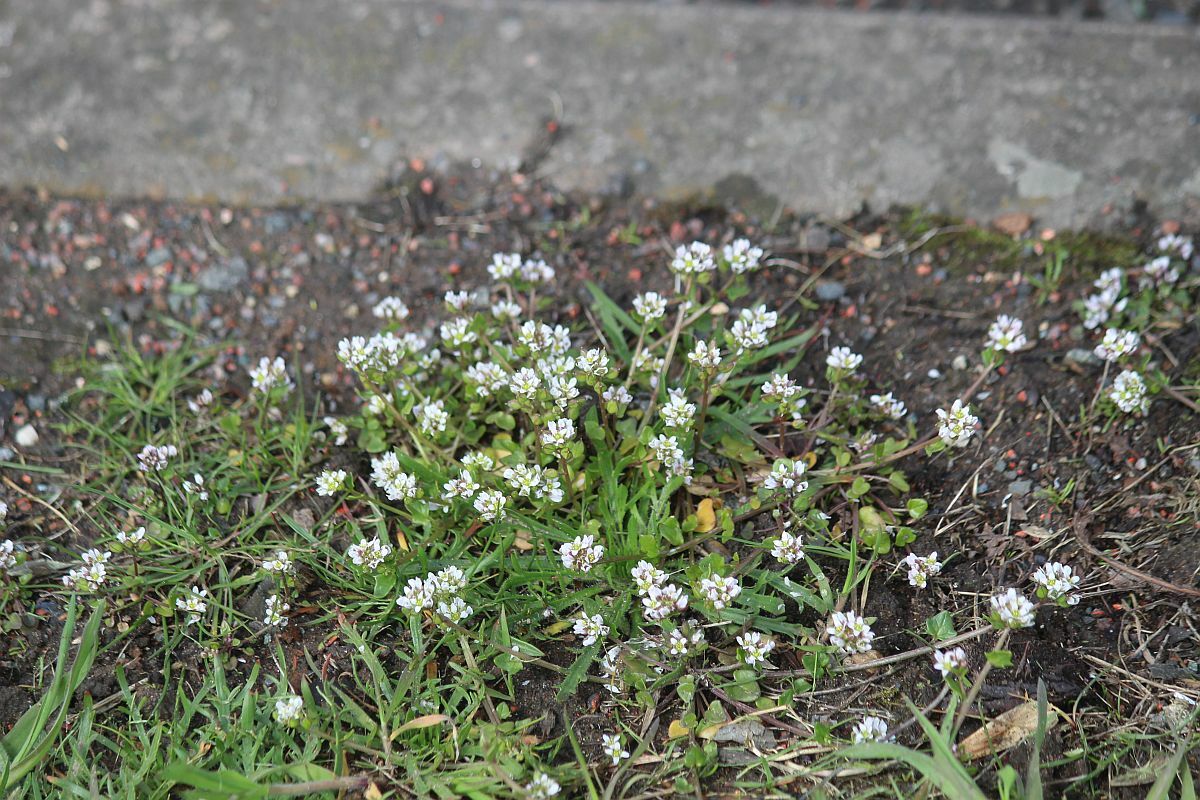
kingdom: Plantae
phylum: Tracheophyta
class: Magnoliopsida
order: Brassicales
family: Brassicaceae
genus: Cochlearia
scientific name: Cochlearia danica
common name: Early scurvygrass
